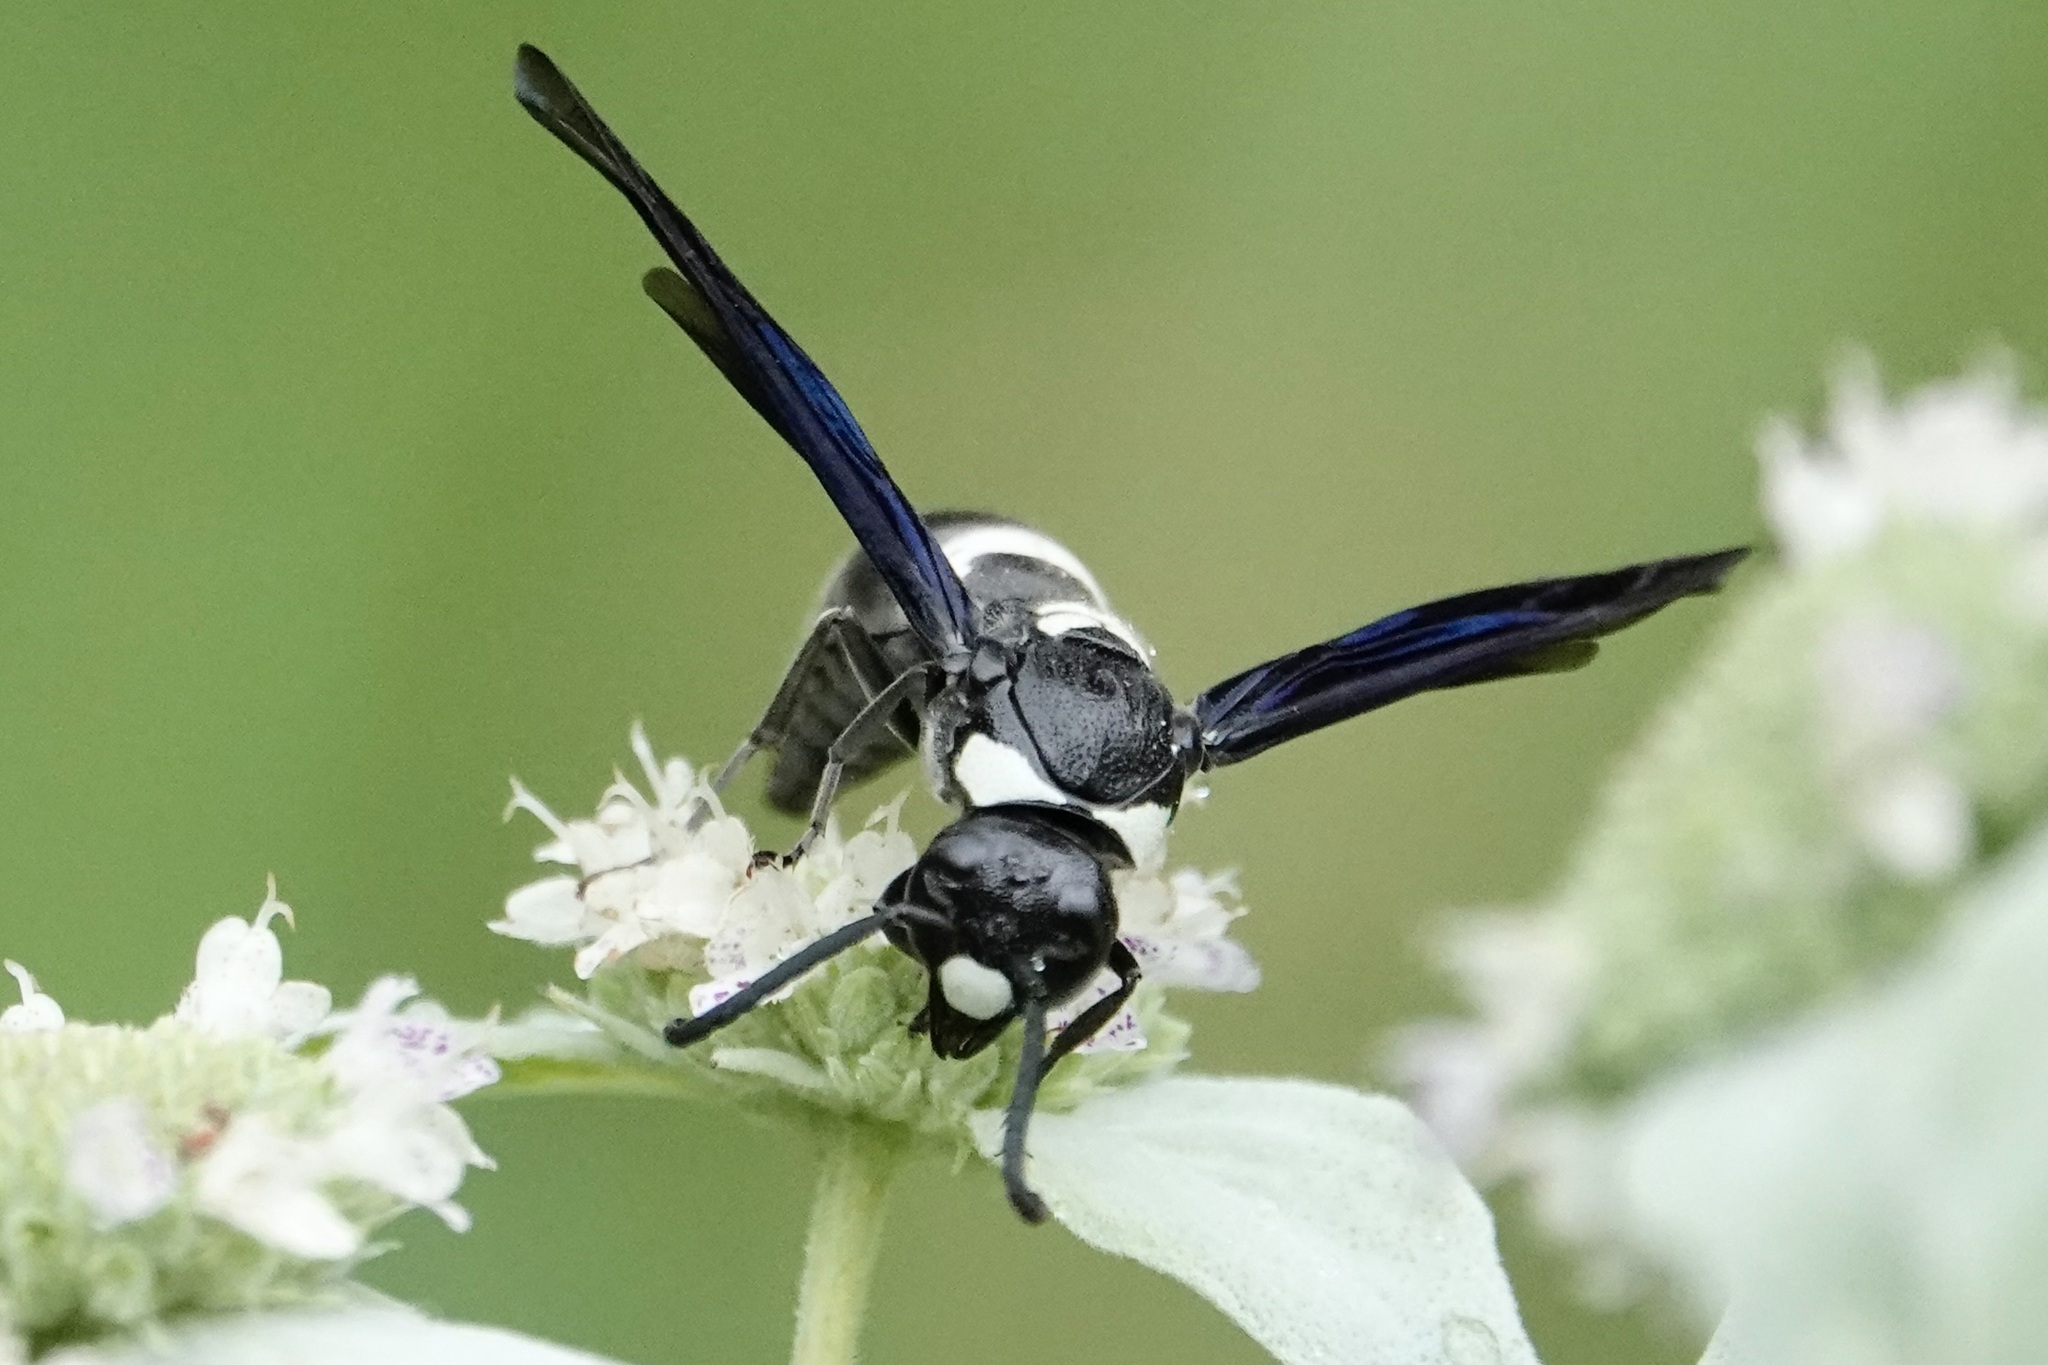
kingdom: Animalia
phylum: Arthropoda
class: Insecta
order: Hymenoptera
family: Eumenidae
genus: Monobia
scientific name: Monobia quadridens
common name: Four-toothed mason wasp
